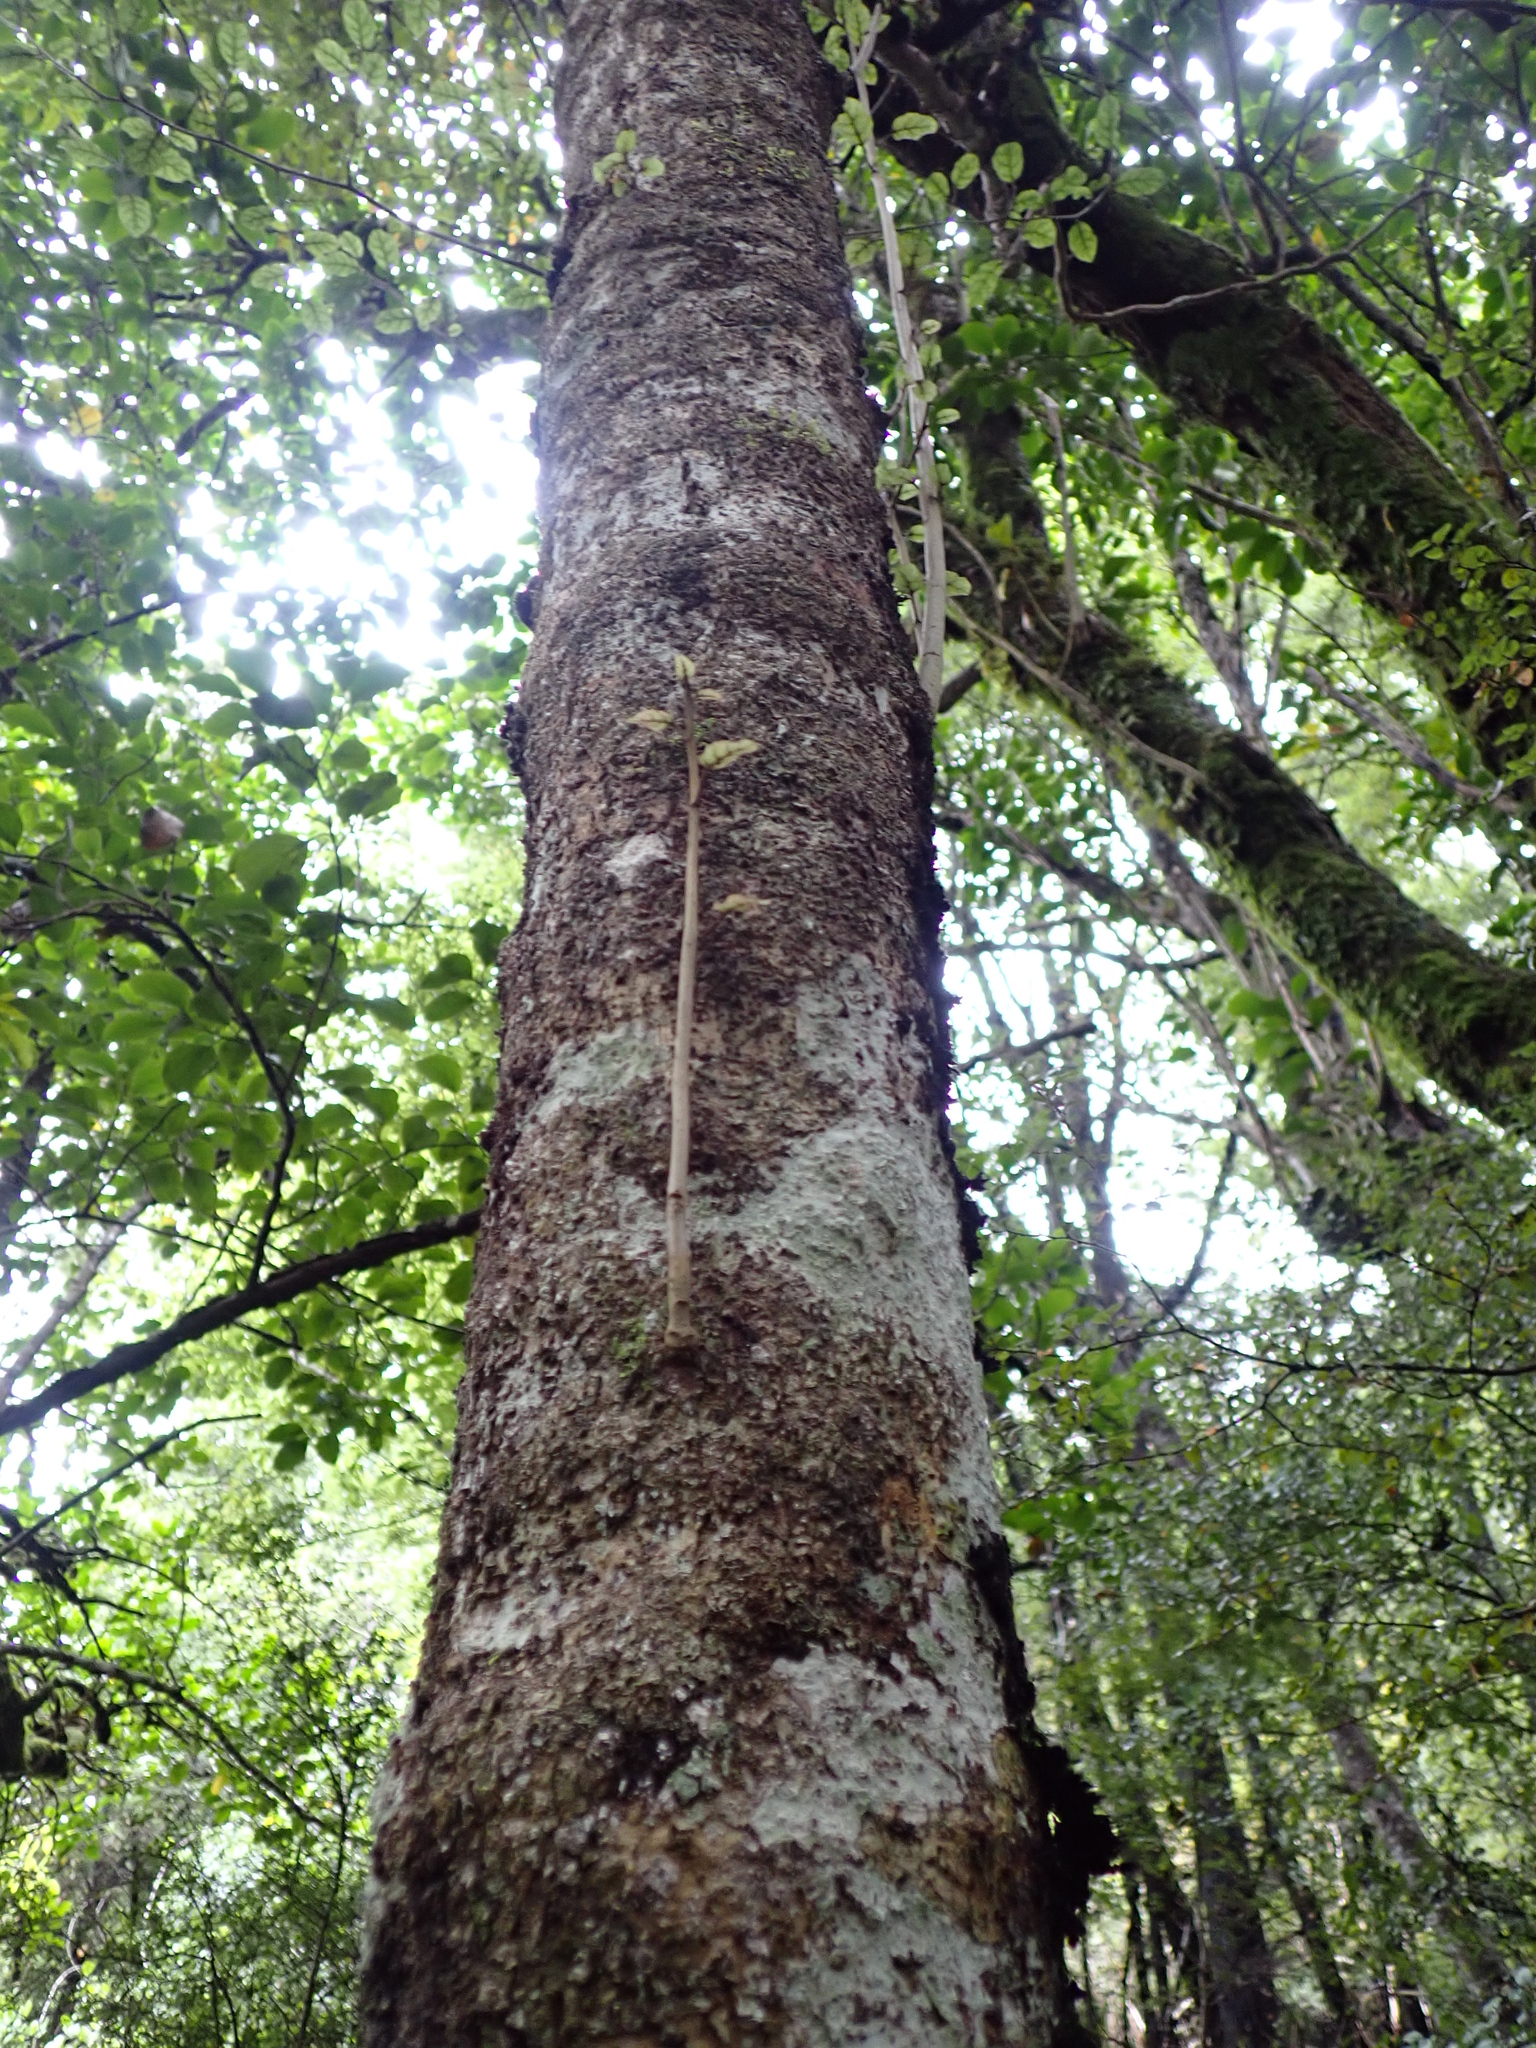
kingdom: Plantae
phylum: Tracheophyta
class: Magnoliopsida
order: Asterales
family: Rousseaceae
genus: Carpodetus
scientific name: Carpodetus serratus
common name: White mapau
